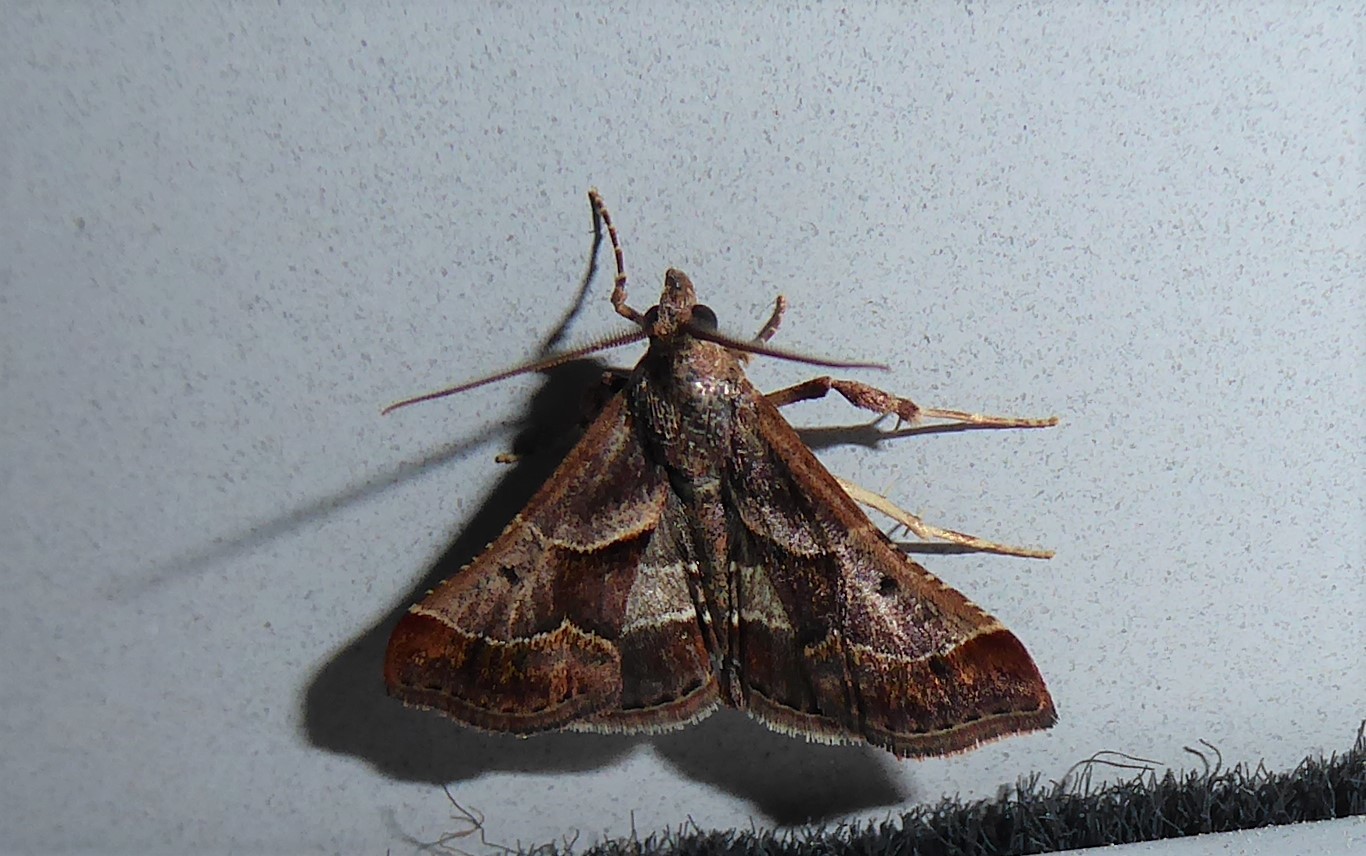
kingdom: Animalia
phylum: Arthropoda
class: Insecta
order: Lepidoptera
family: Pyralidae
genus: Gauna
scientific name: Gauna aegusalis
